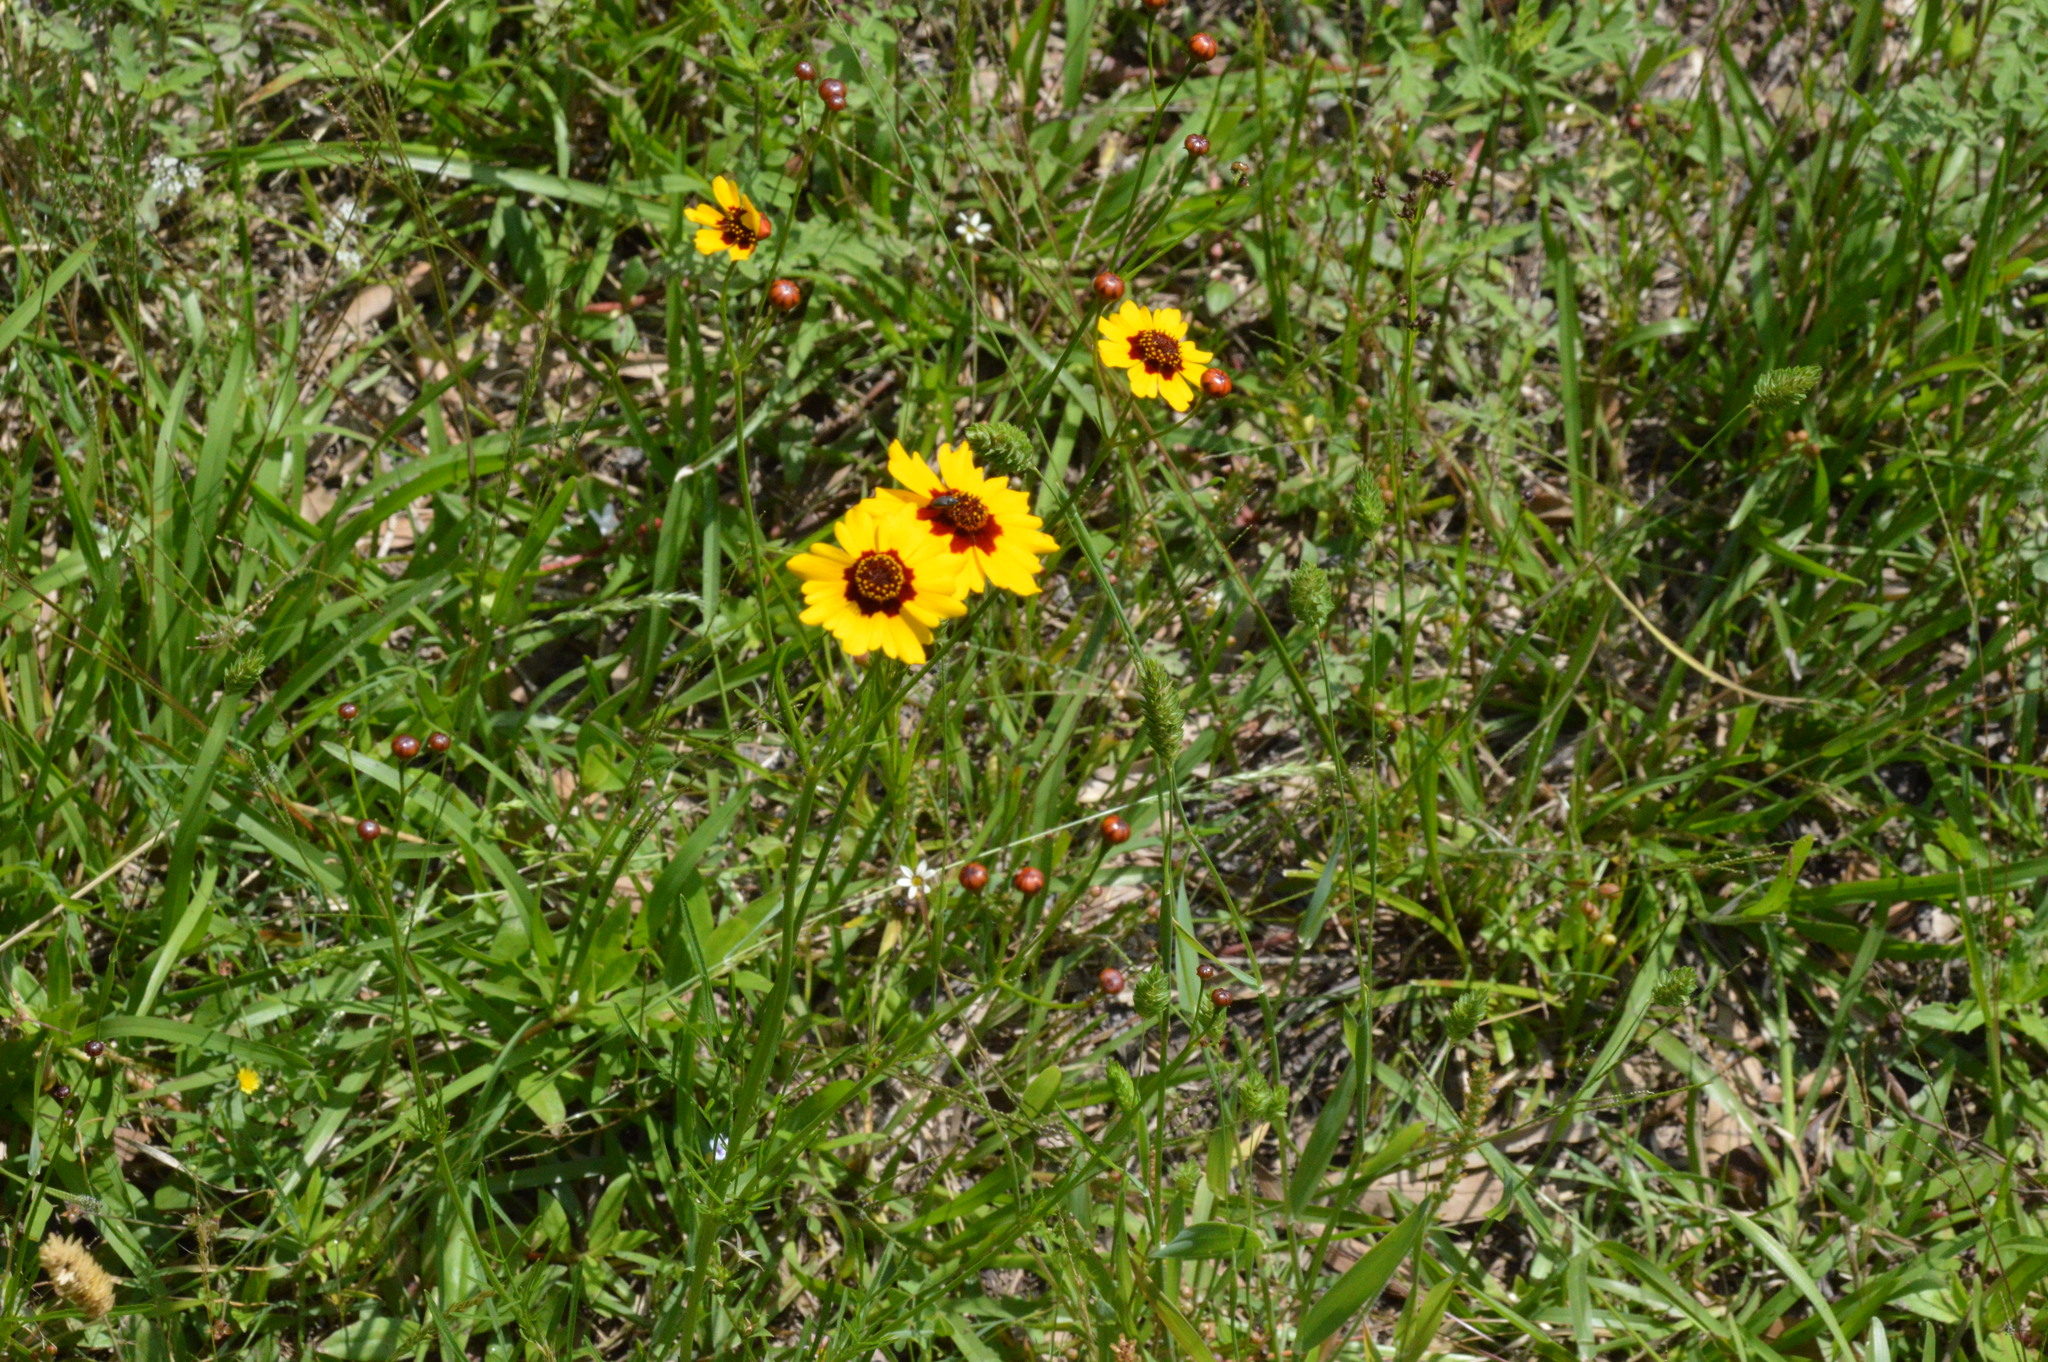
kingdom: Plantae
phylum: Tracheophyta
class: Magnoliopsida
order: Asterales
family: Asteraceae
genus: Coreopsis
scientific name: Coreopsis tinctoria
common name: Garden tickseed
